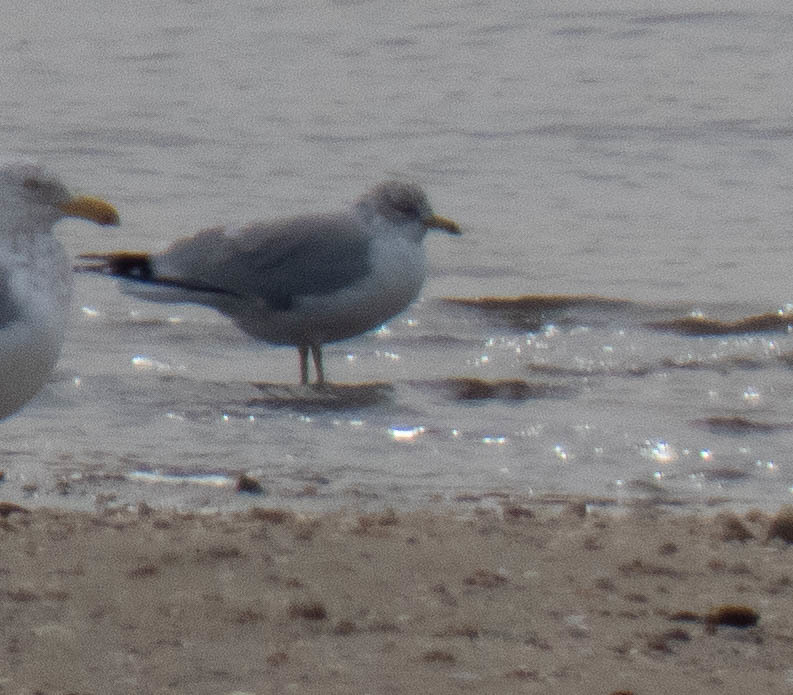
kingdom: Animalia
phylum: Chordata
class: Aves
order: Charadriiformes
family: Laridae
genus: Larus
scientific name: Larus delawarensis
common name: Ring-billed gull
